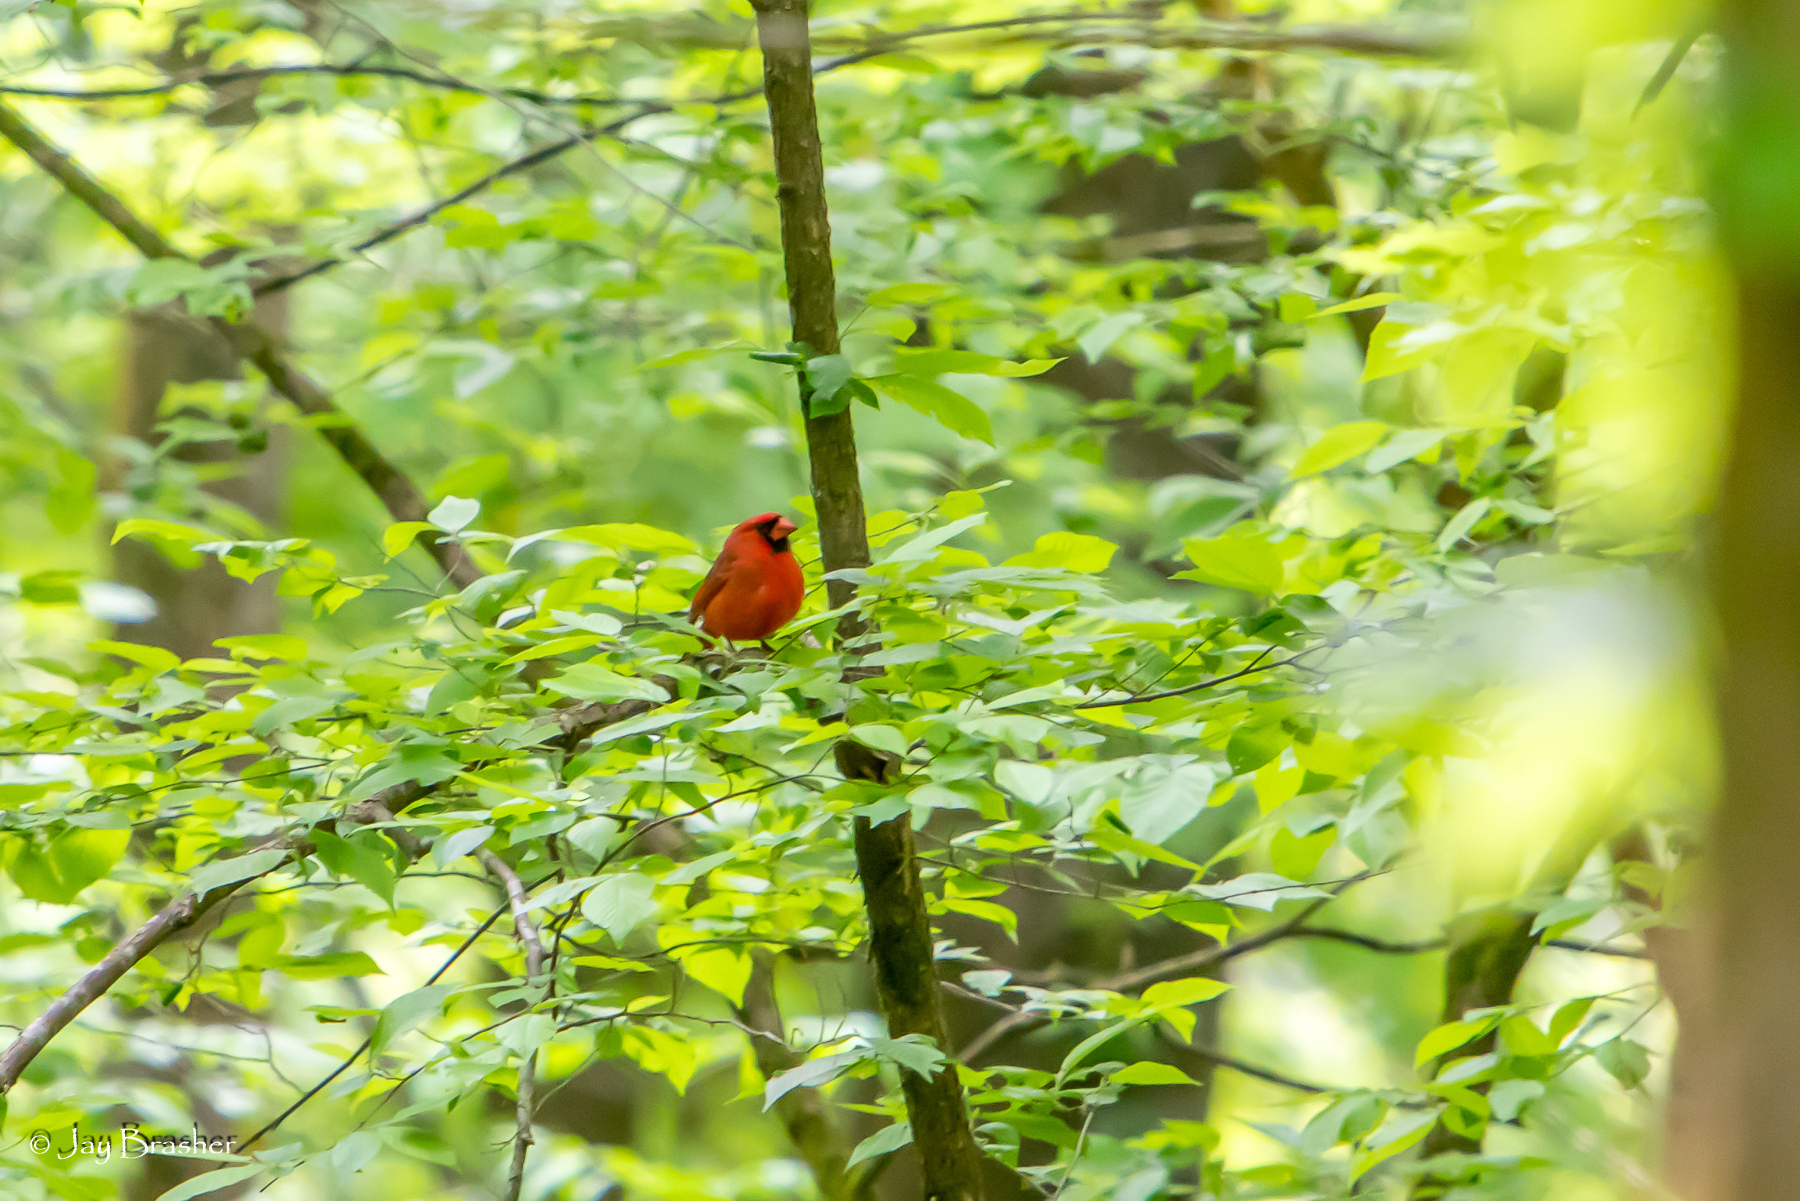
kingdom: Animalia
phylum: Chordata
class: Aves
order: Passeriformes
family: Cardinalidae
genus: Cardinalis
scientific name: Cardinalis cardinalis
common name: Northern cardinal
